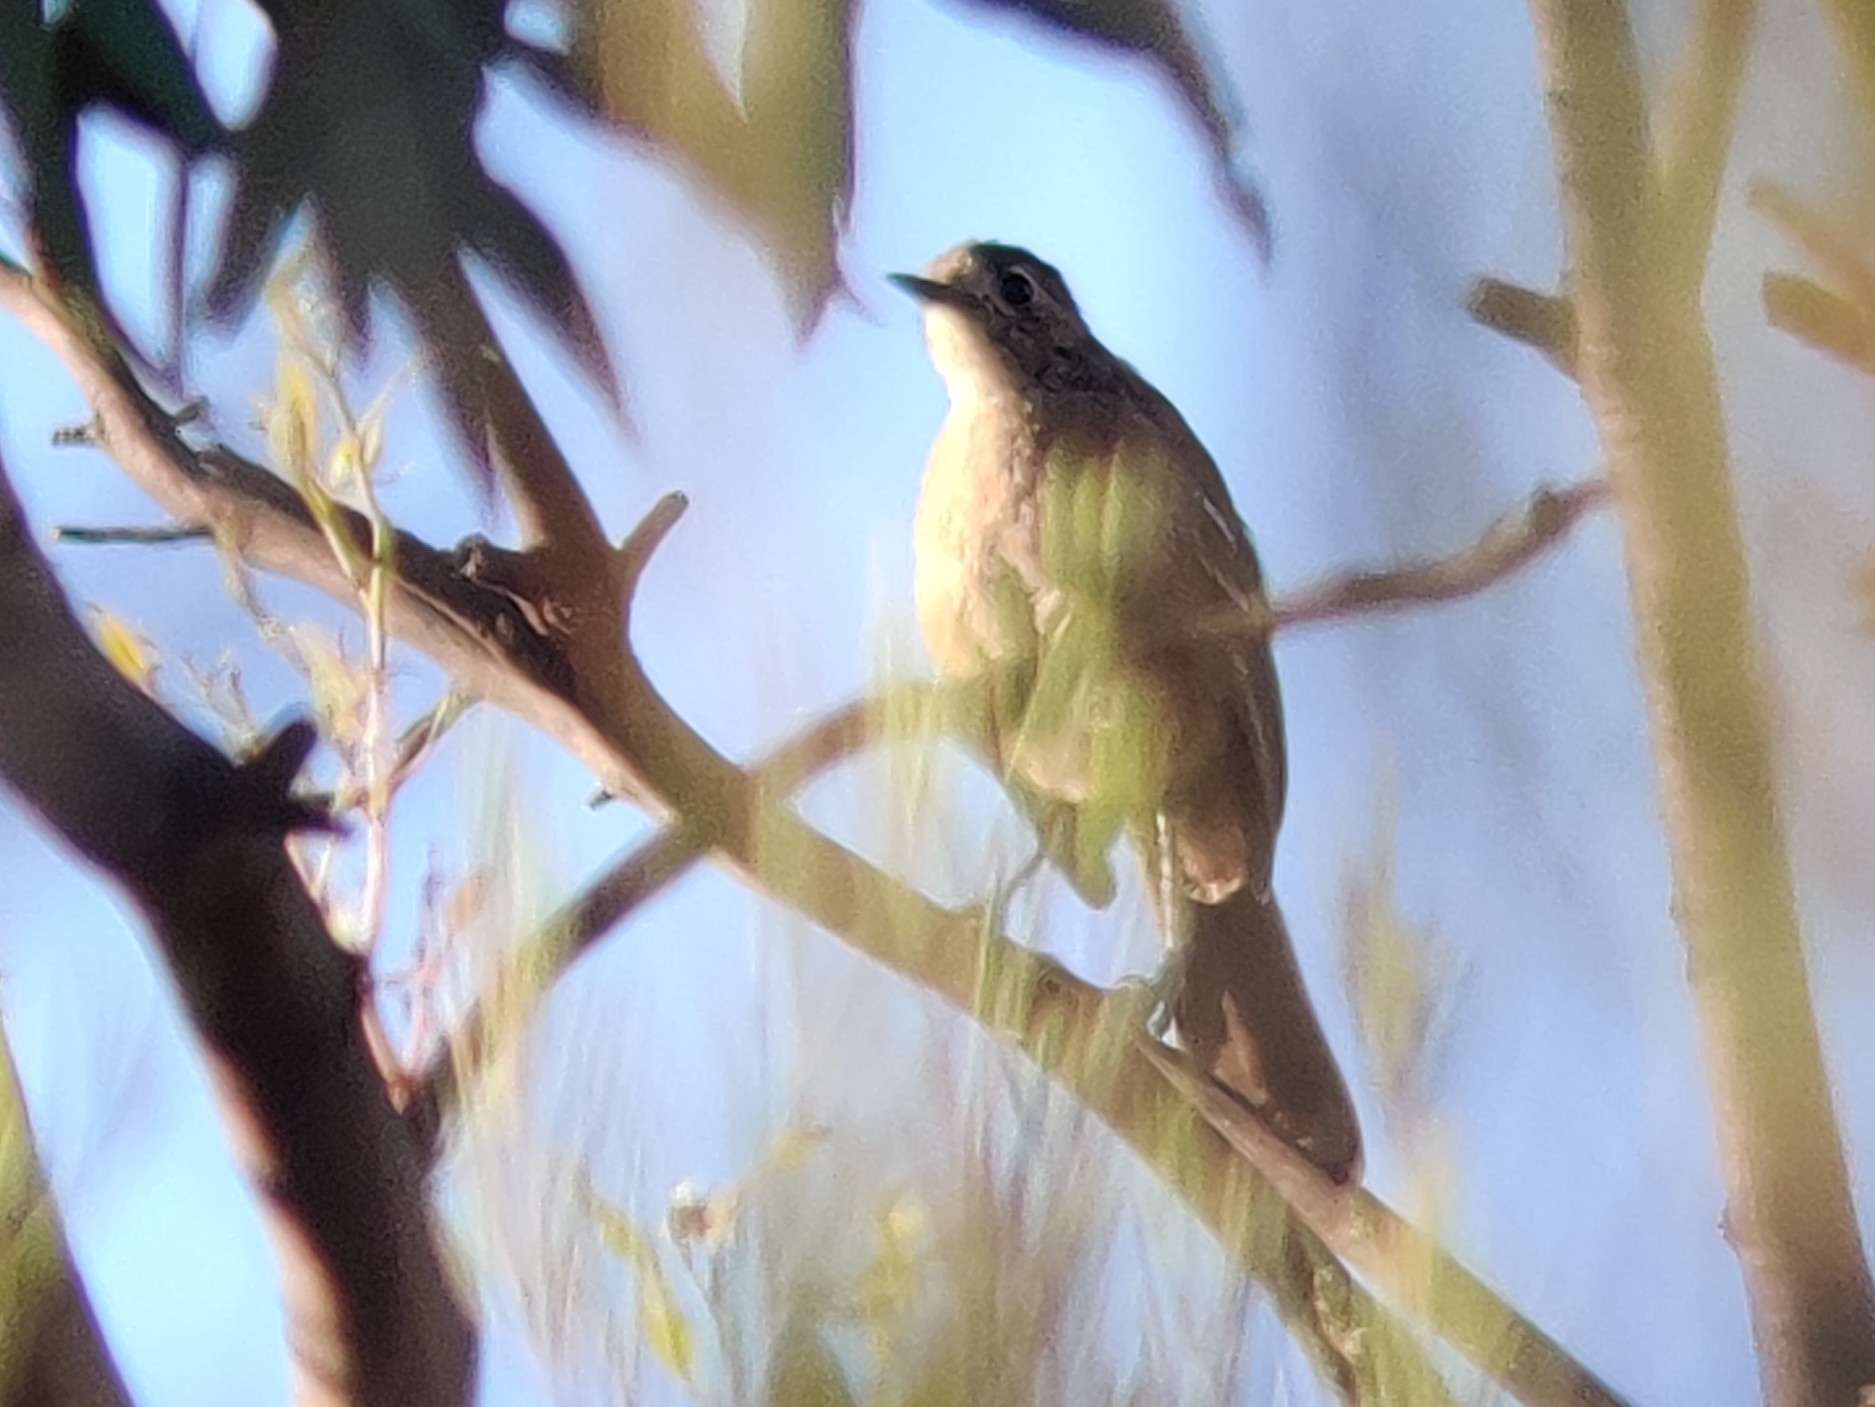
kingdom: Animalia
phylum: Chordata
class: Aves
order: Passeriformes
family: Petroicidae
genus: Drymodes
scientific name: Drymodes brunneopygia
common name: Southern scrub robin
